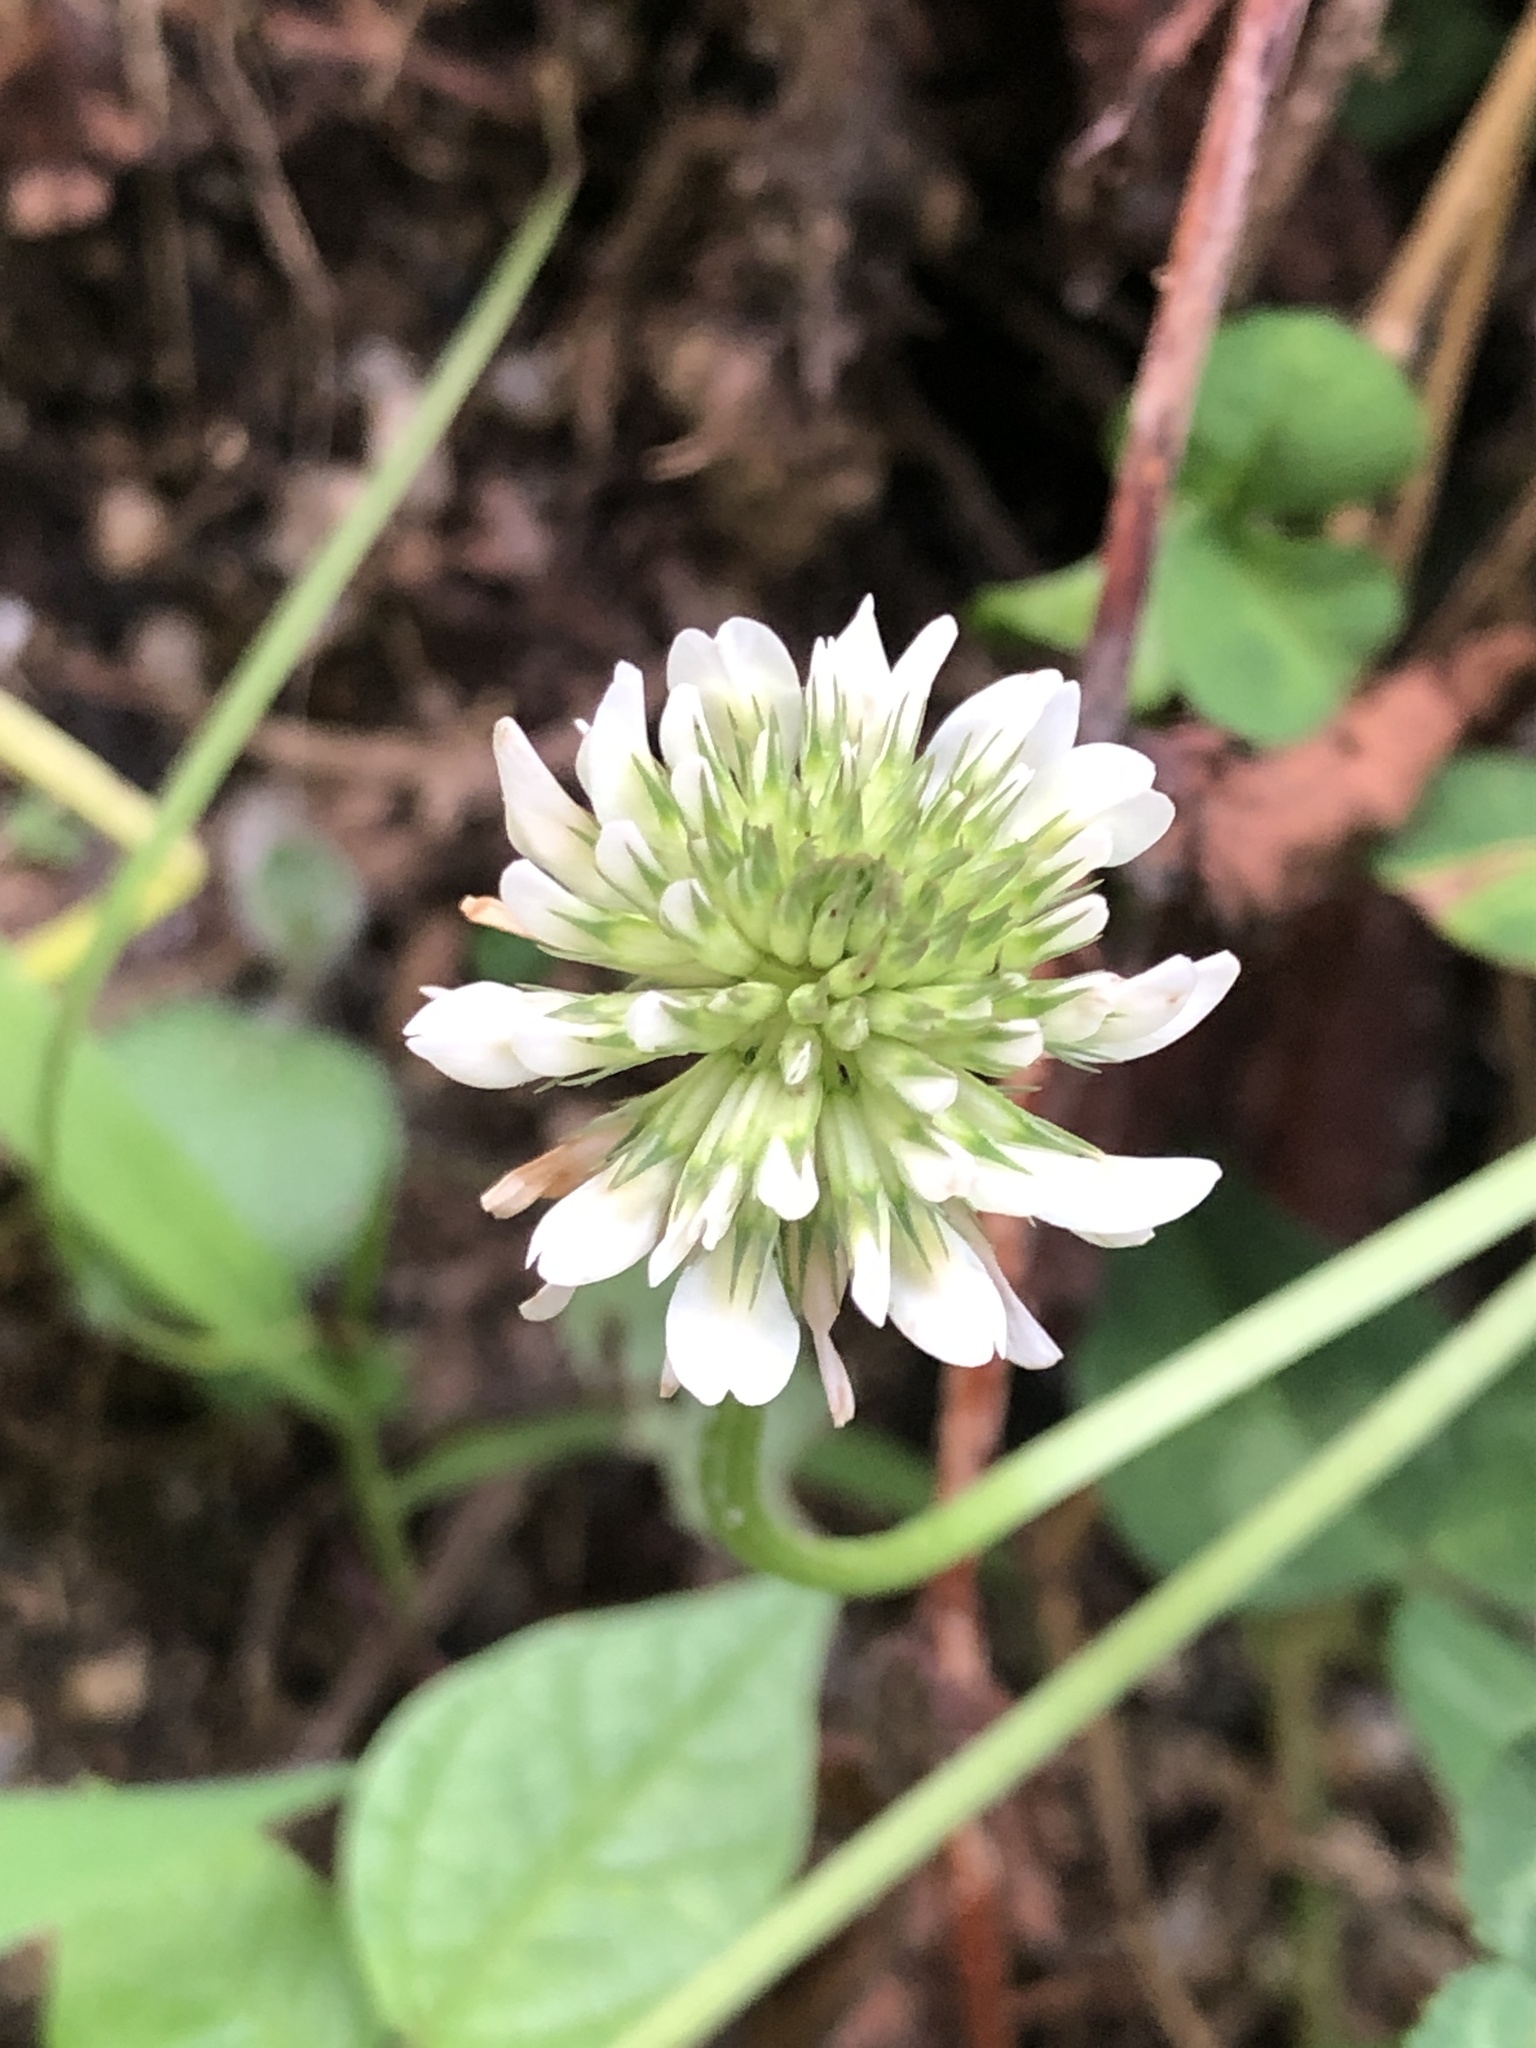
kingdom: Plantae
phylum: Tracheophyta
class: Magnoliopsida
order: Fabales
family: Fabaceae
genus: Trifolium
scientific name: Trifolium repens
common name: White clover
